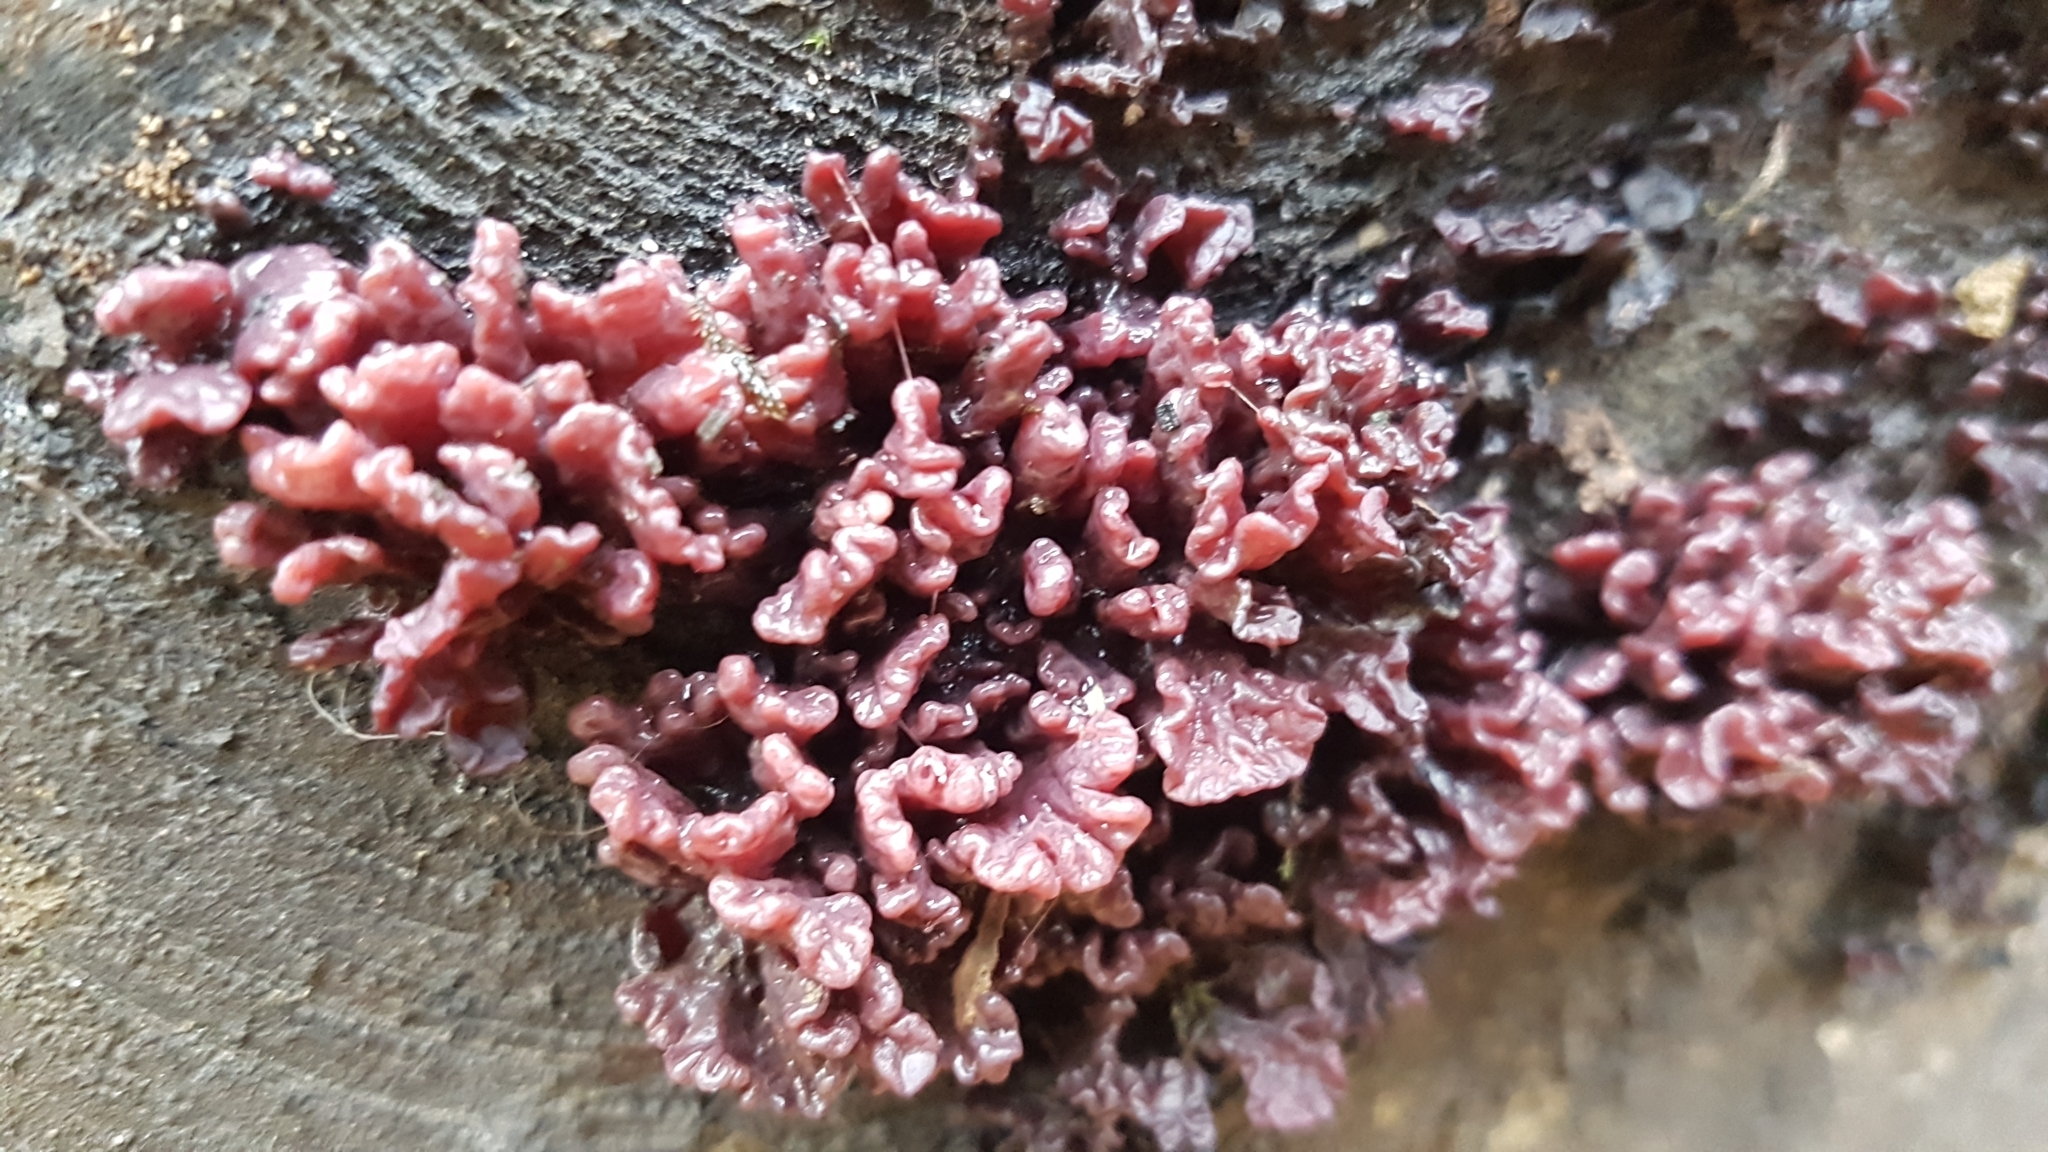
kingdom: Fungi
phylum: Ascomycota
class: Leotiomycetes
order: Helotiales
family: Gelatinodiscaceae
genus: Ascocoryne
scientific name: Ascocoryne sarcoides
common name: Purple jellydisc
